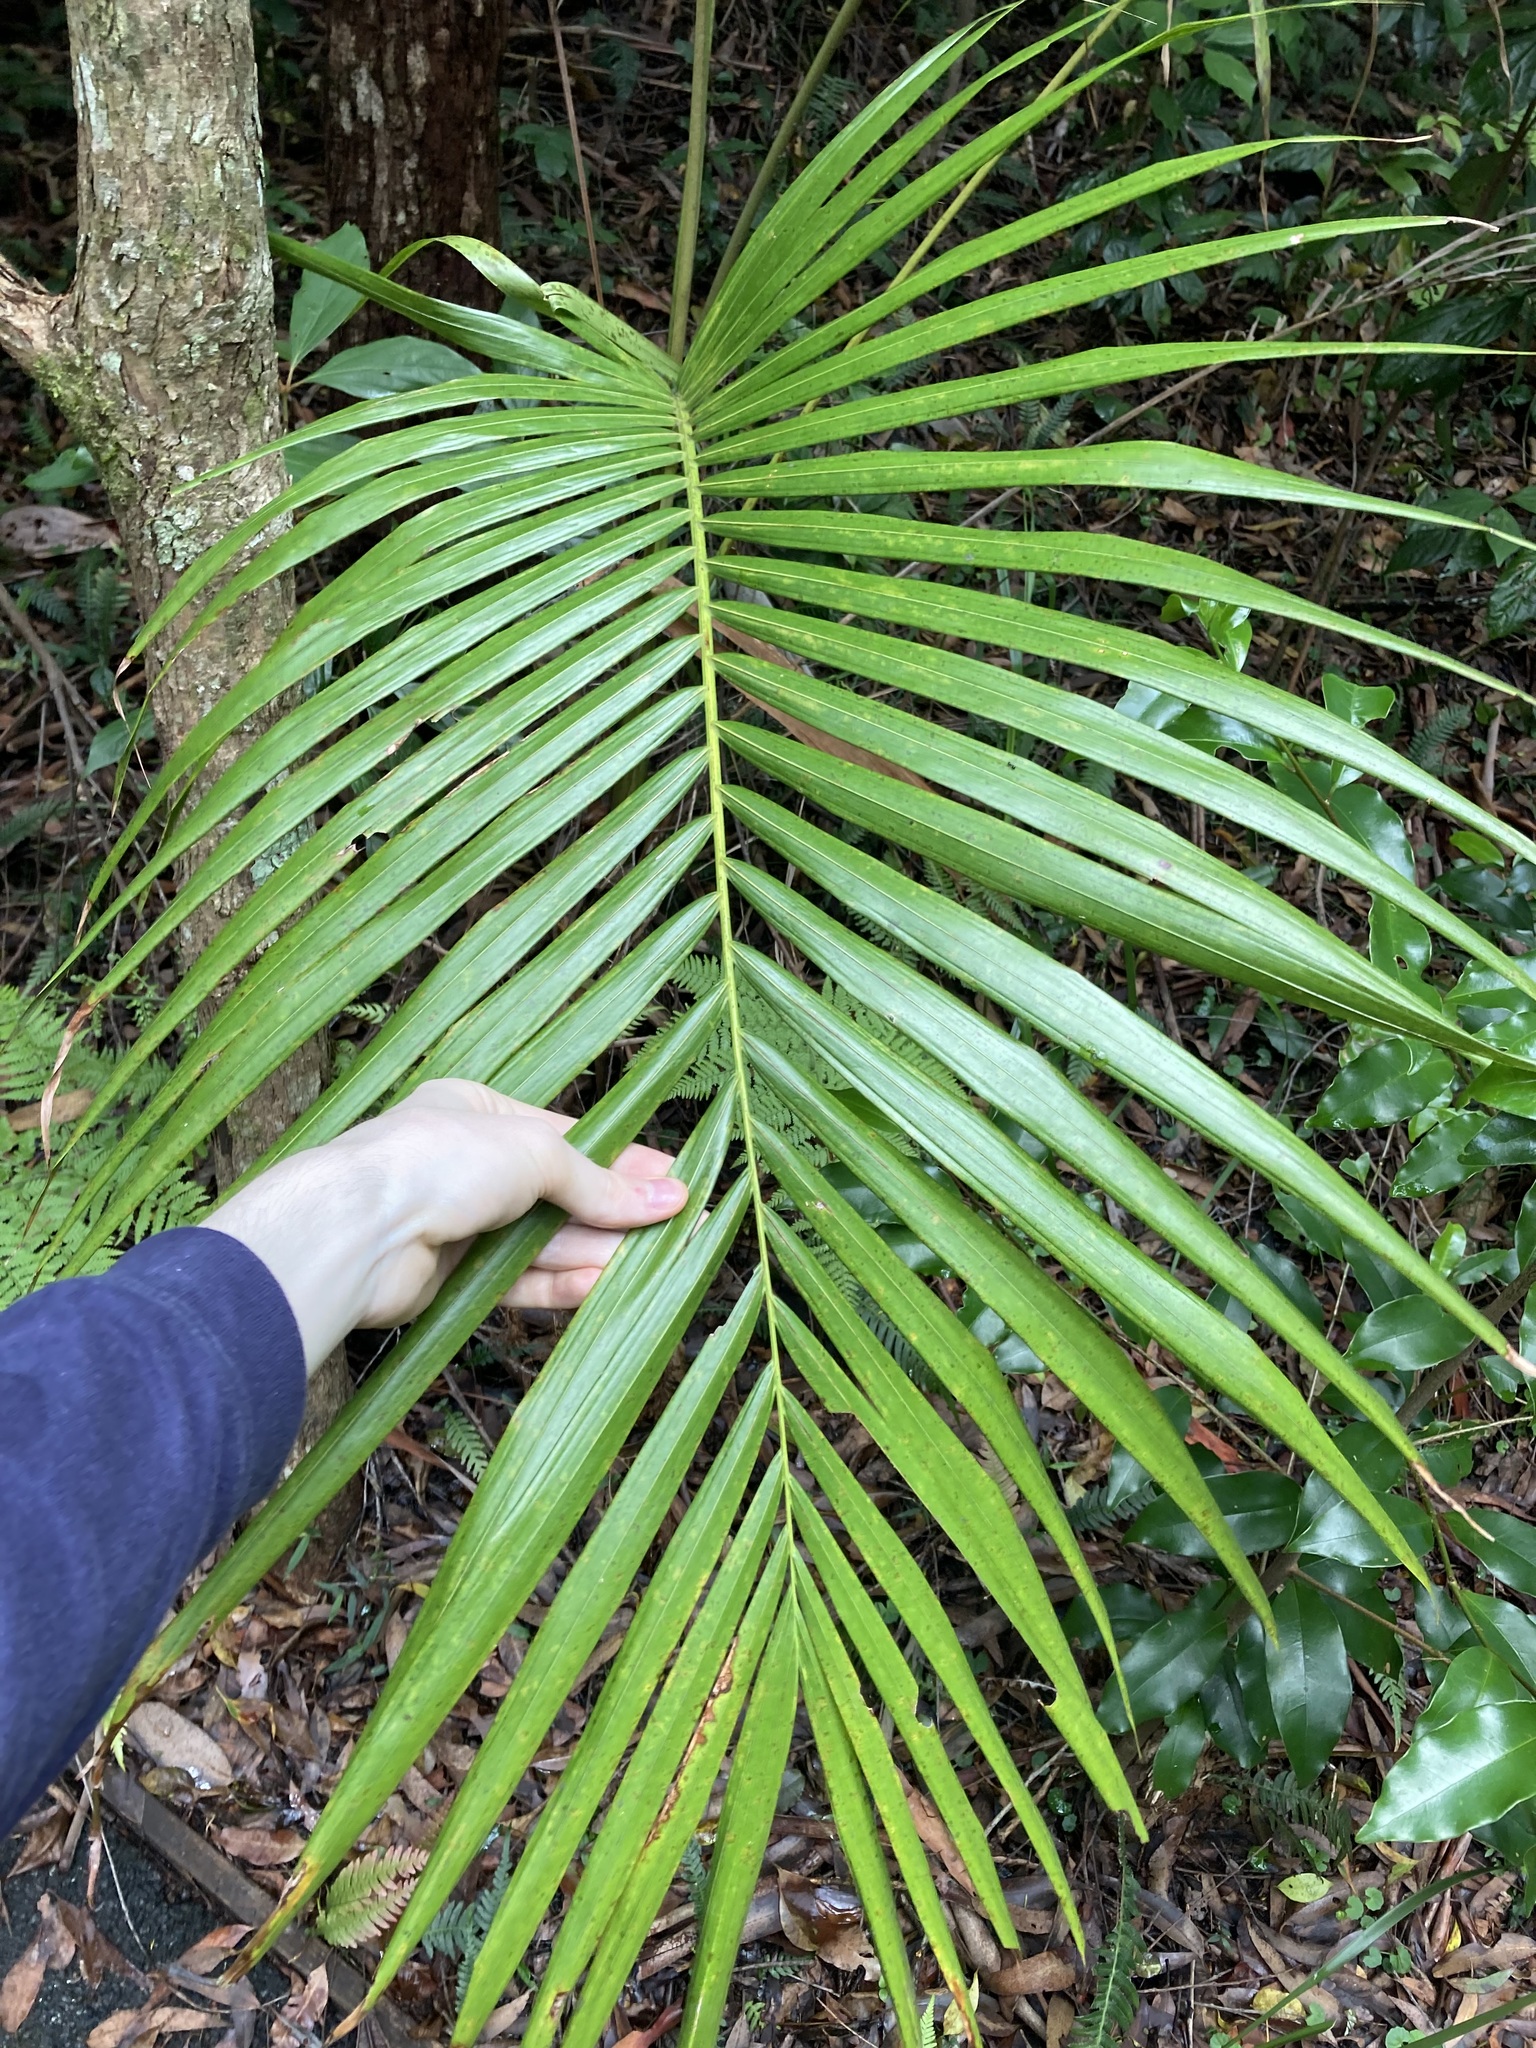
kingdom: Plantae
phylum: Tracheophyta
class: Liliopsida
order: Arecales
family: Arecaceae
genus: Archontophoenix
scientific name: Archontophoenix cunninghamiana
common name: Piccabeen bangalow palm
